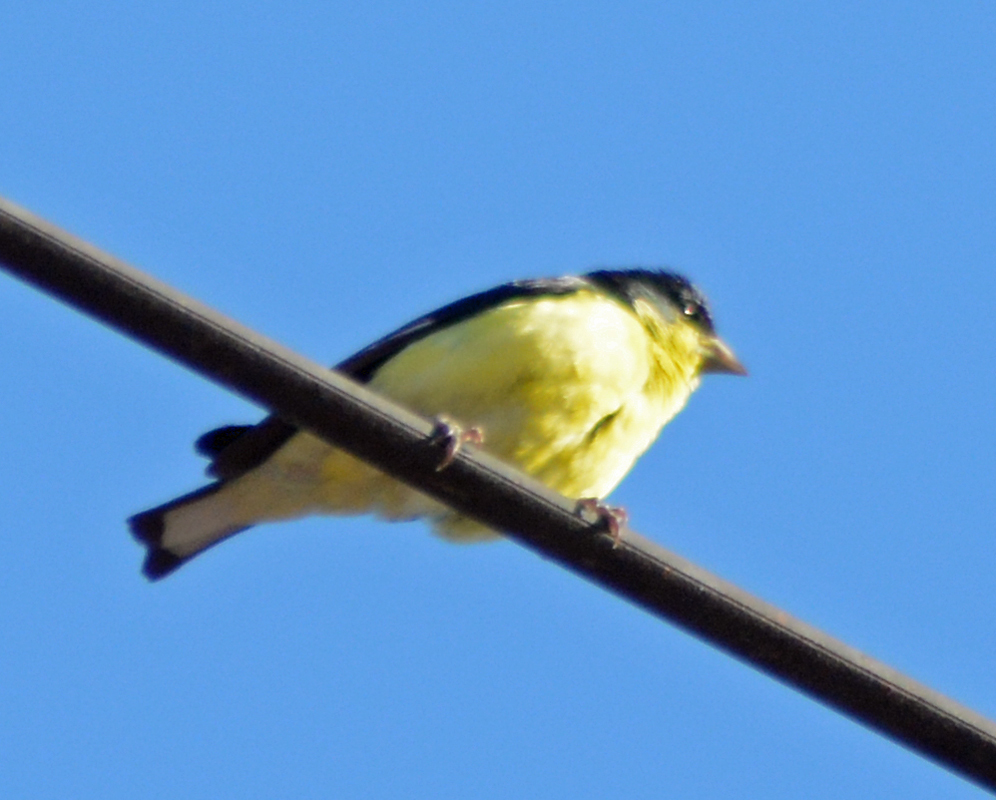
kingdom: Animalia
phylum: Chordata
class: Aves
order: Passeriformes
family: Fringillidae
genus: Spinus
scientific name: Spinus psaltria
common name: Lesser goldfinch
